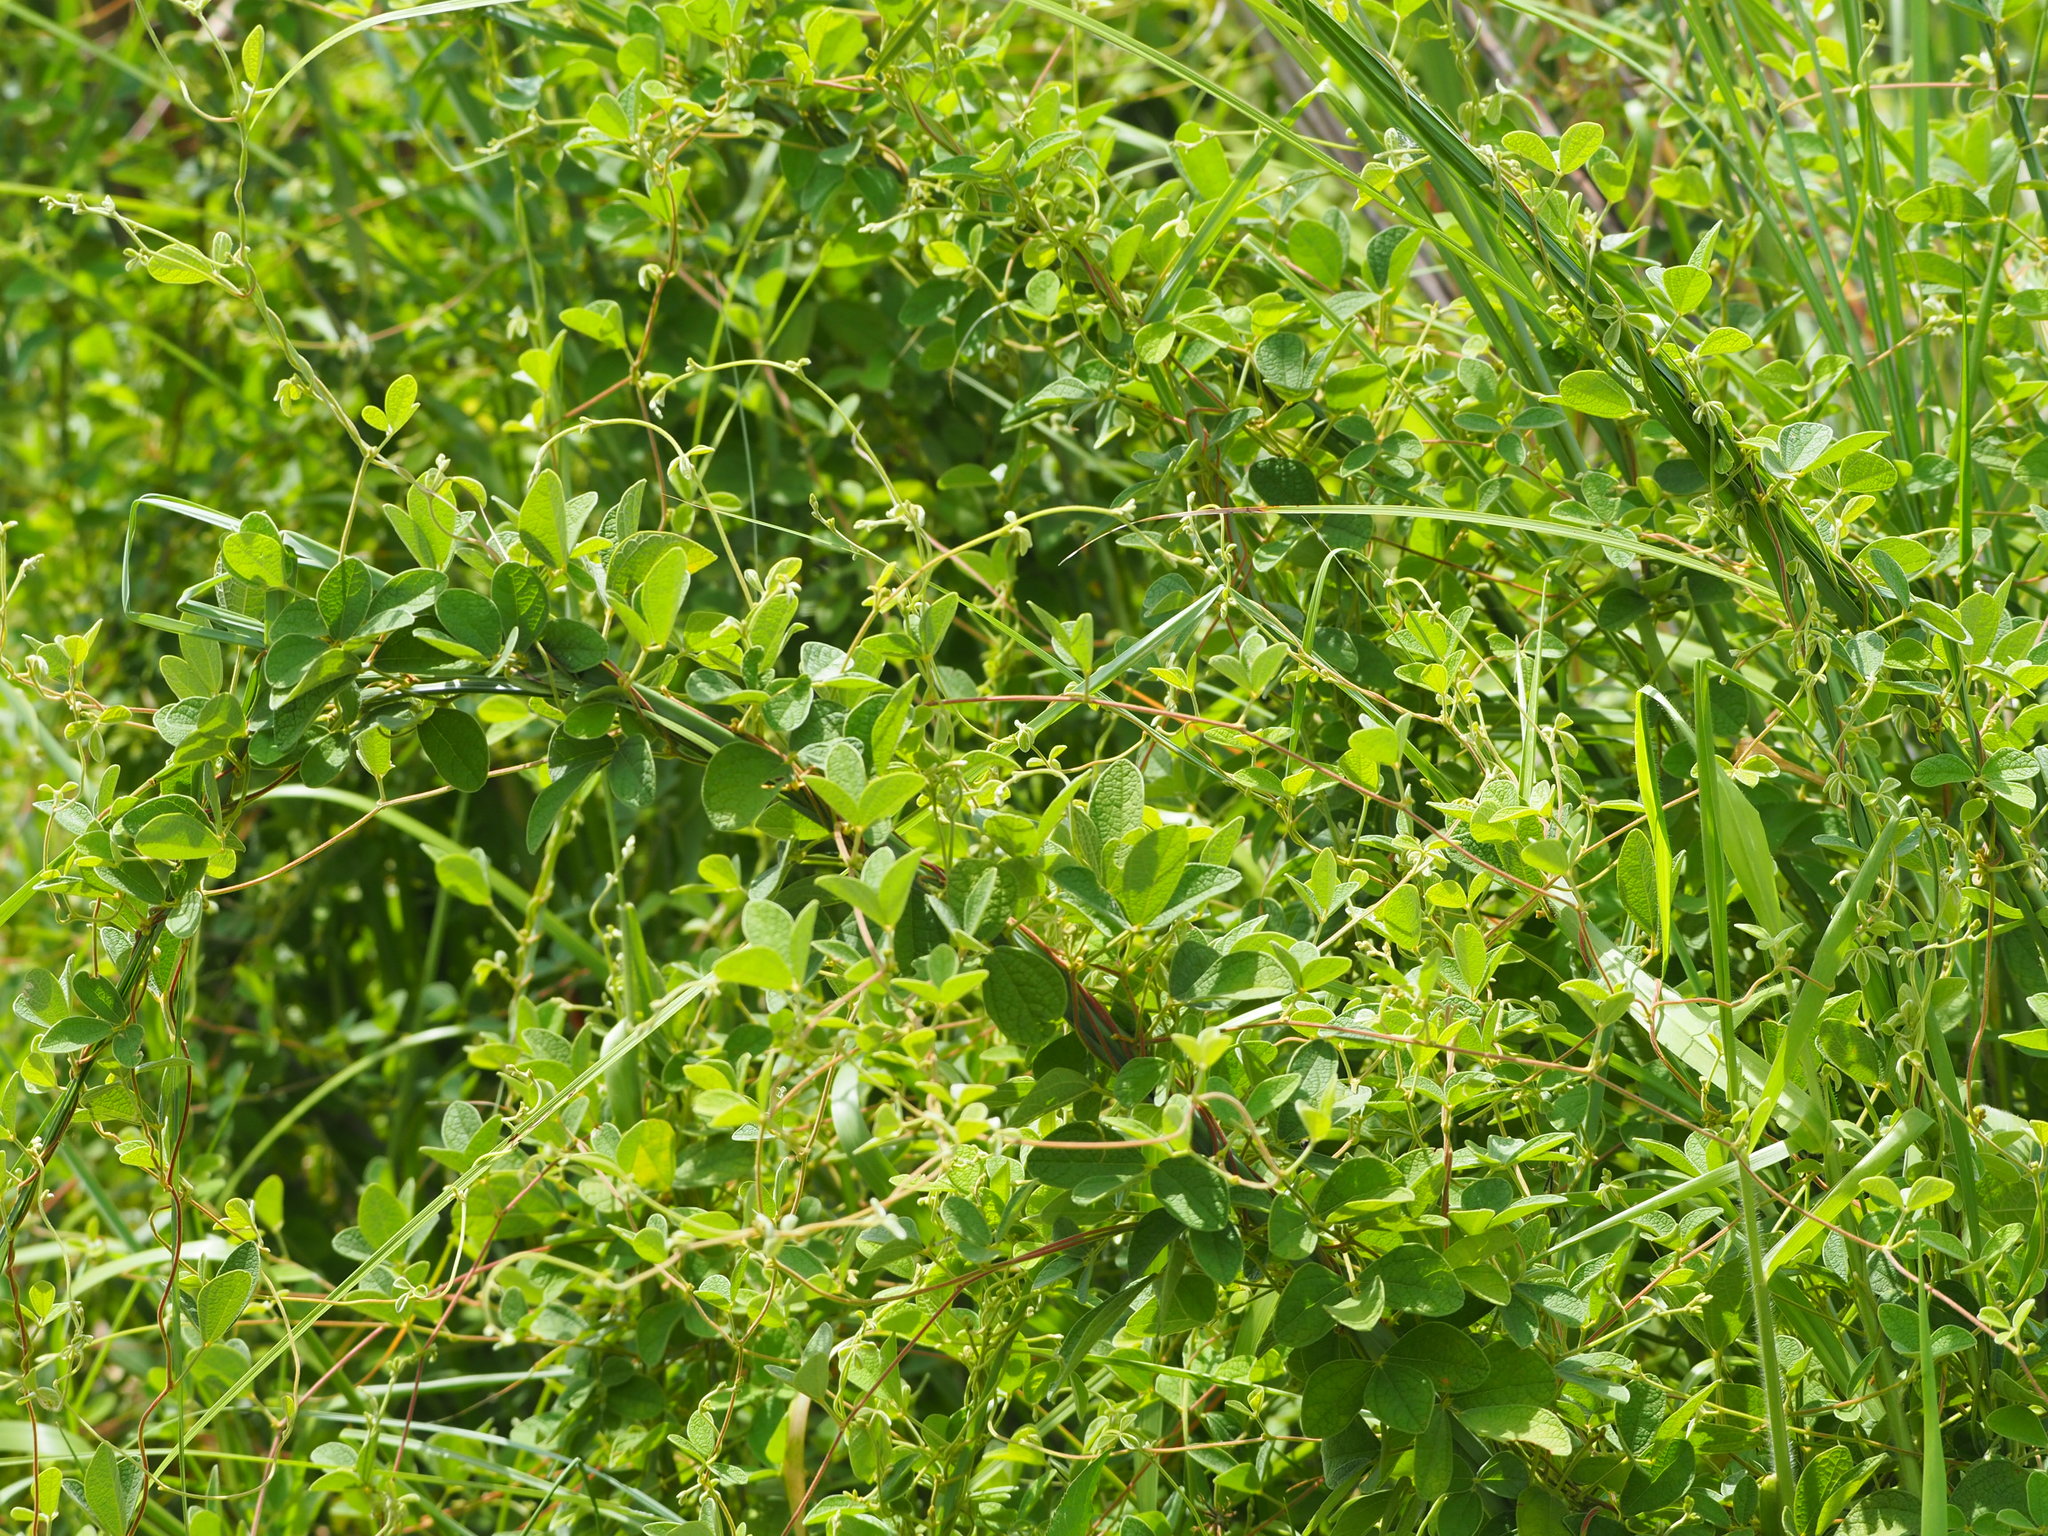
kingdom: Plantae
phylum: Tracheophyta
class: Magnoliopsida
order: Fabales
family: Fabaceae
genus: Cajanus
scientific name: Cajanus scarabaeoides
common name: Showy pigeonpea
